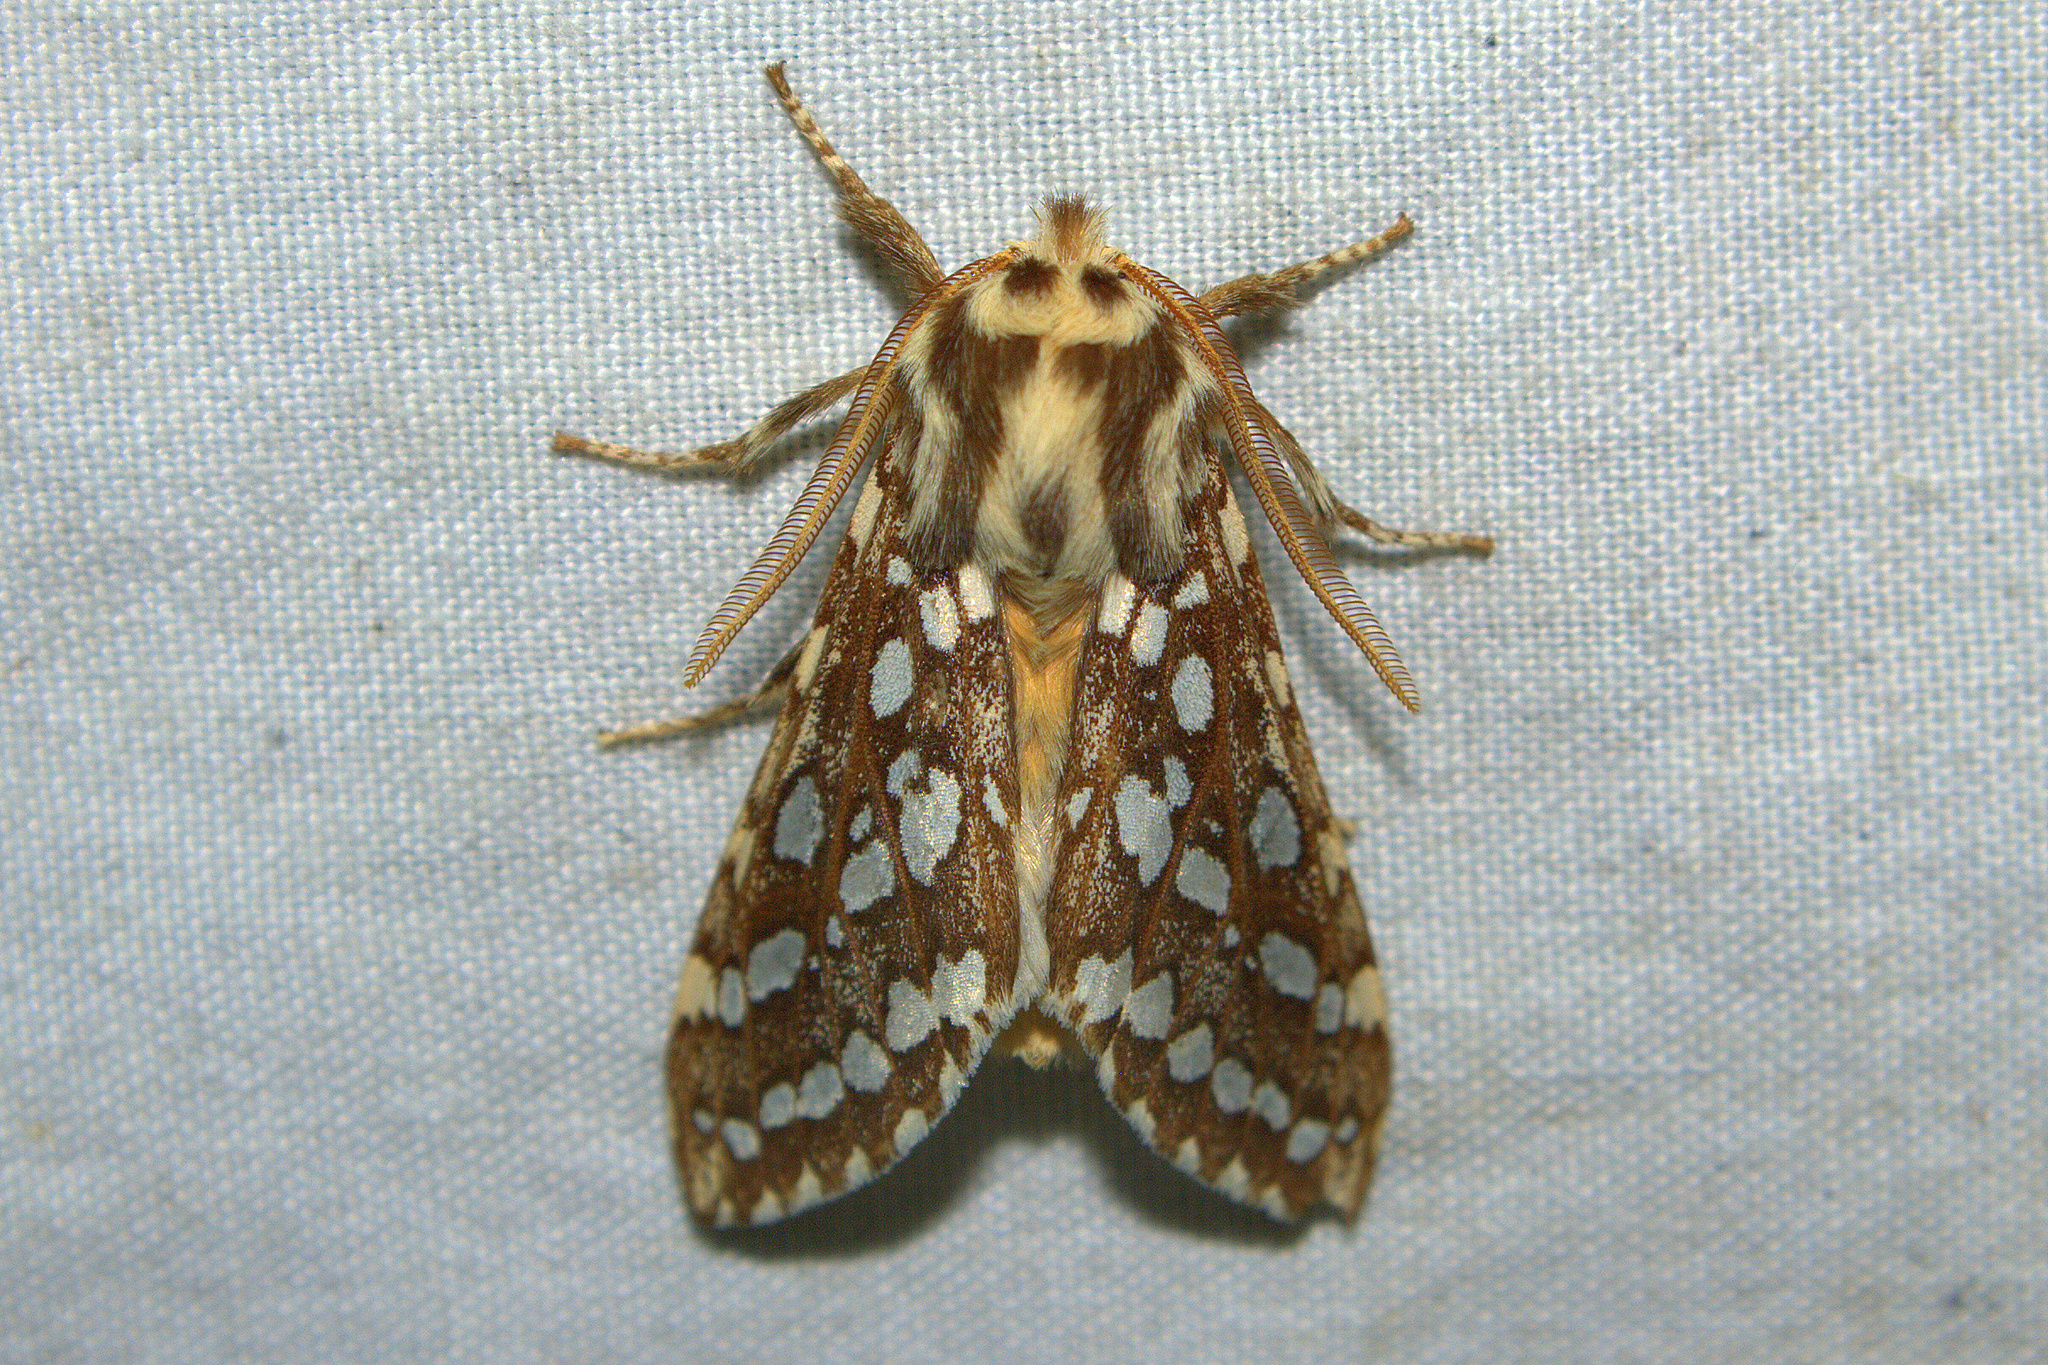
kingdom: Animalia
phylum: Arthropoda
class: Insecta
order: Lepidoptera
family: Erebidae
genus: Lophocampa
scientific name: Lophocampa argentata
